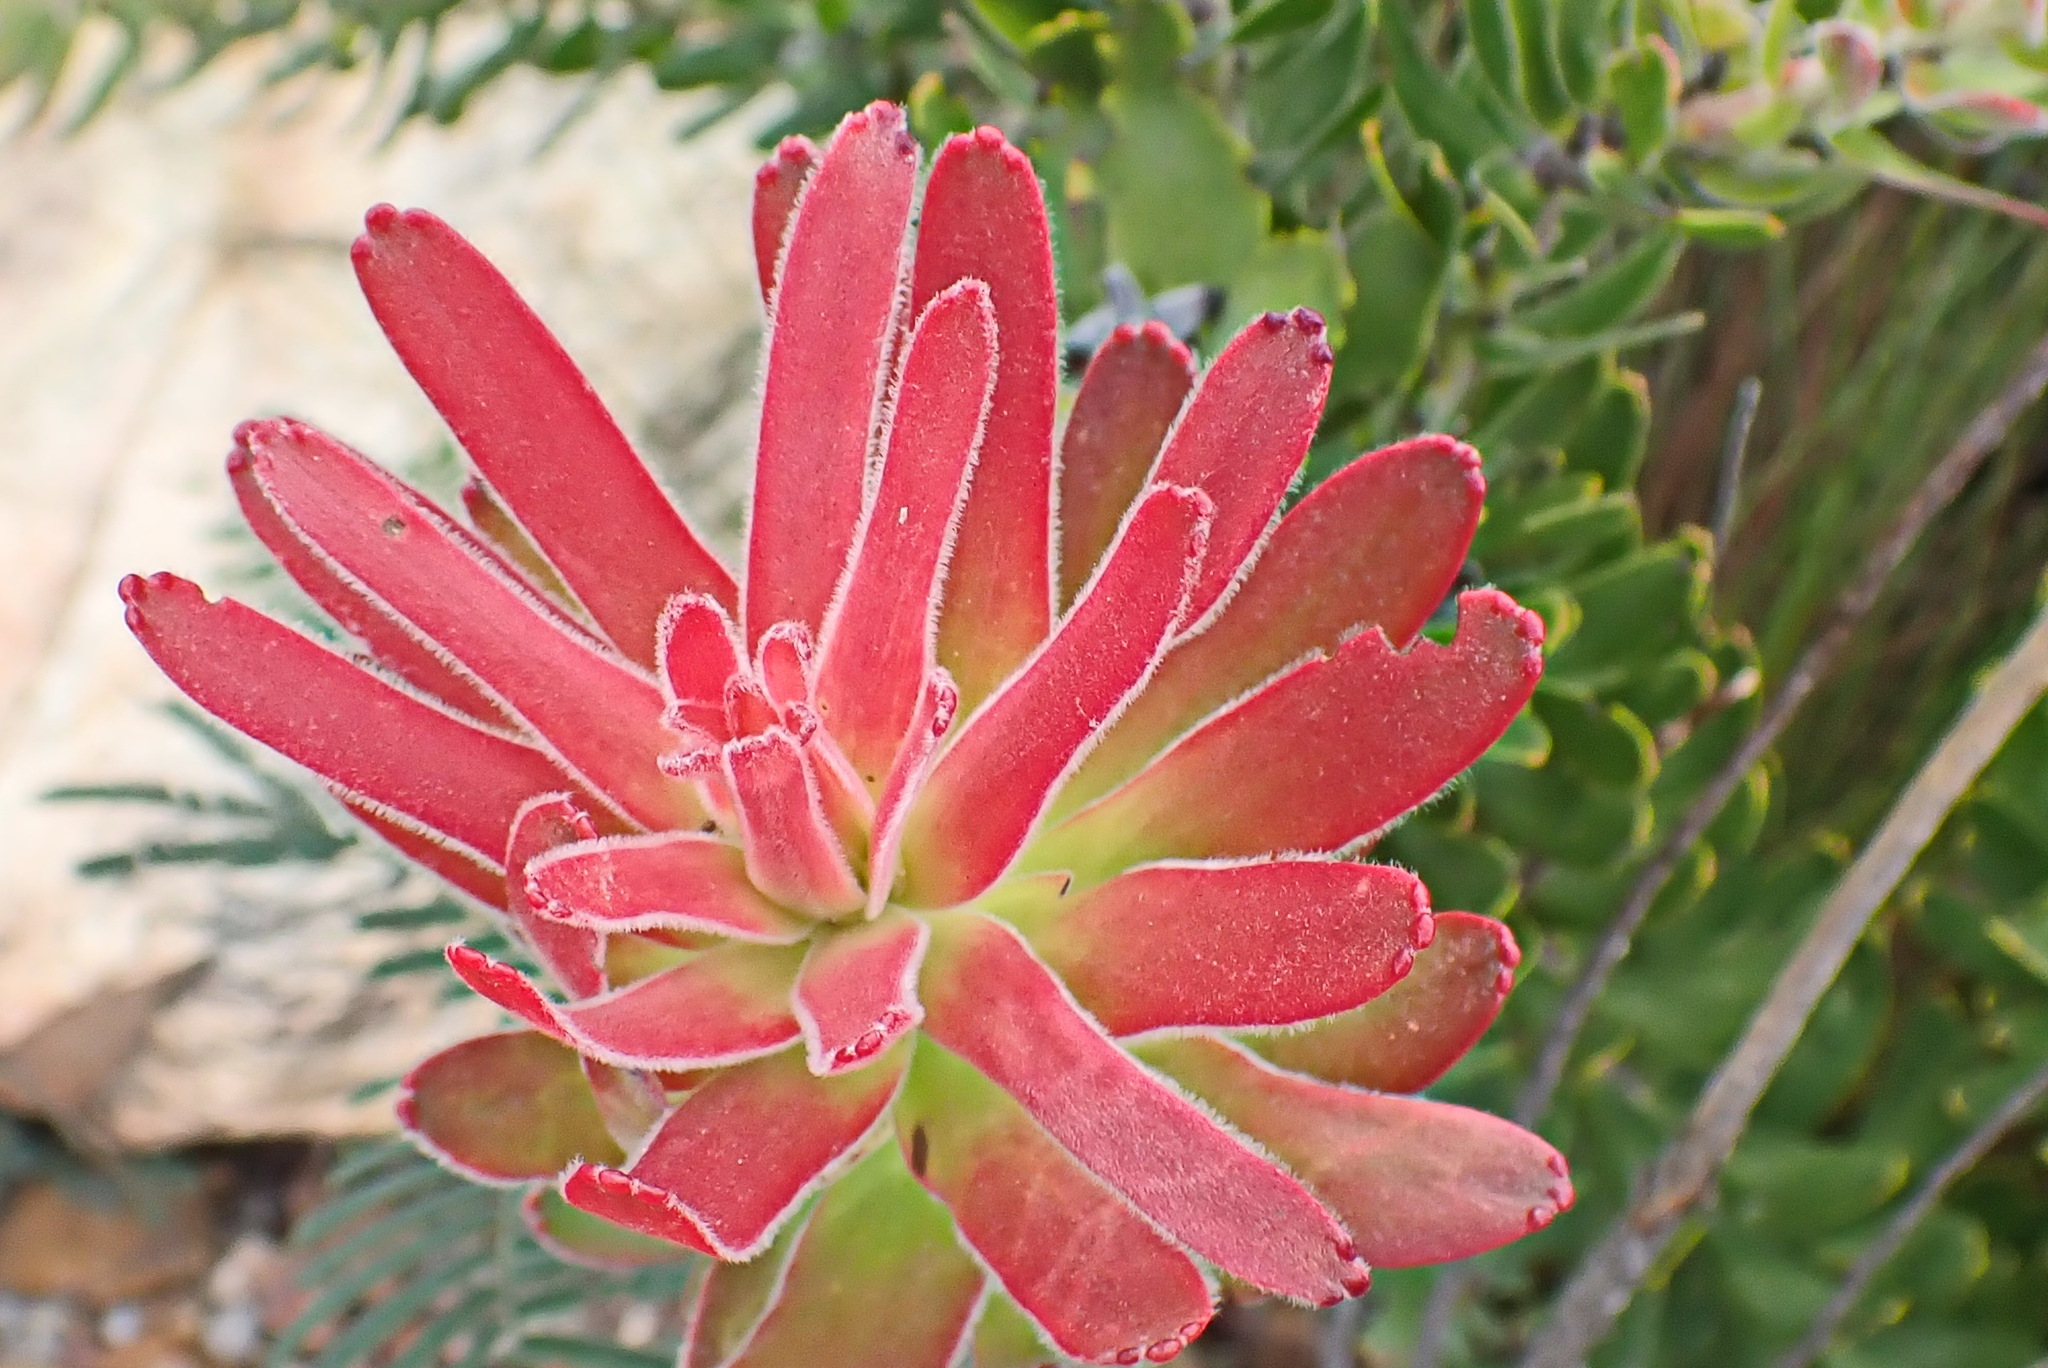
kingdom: Plantae
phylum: Tracheophyta
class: Magnoliopsida
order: Proteales
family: Proteaceae
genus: Mimetes
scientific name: Mimetes cucullatus
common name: Common pagoda
